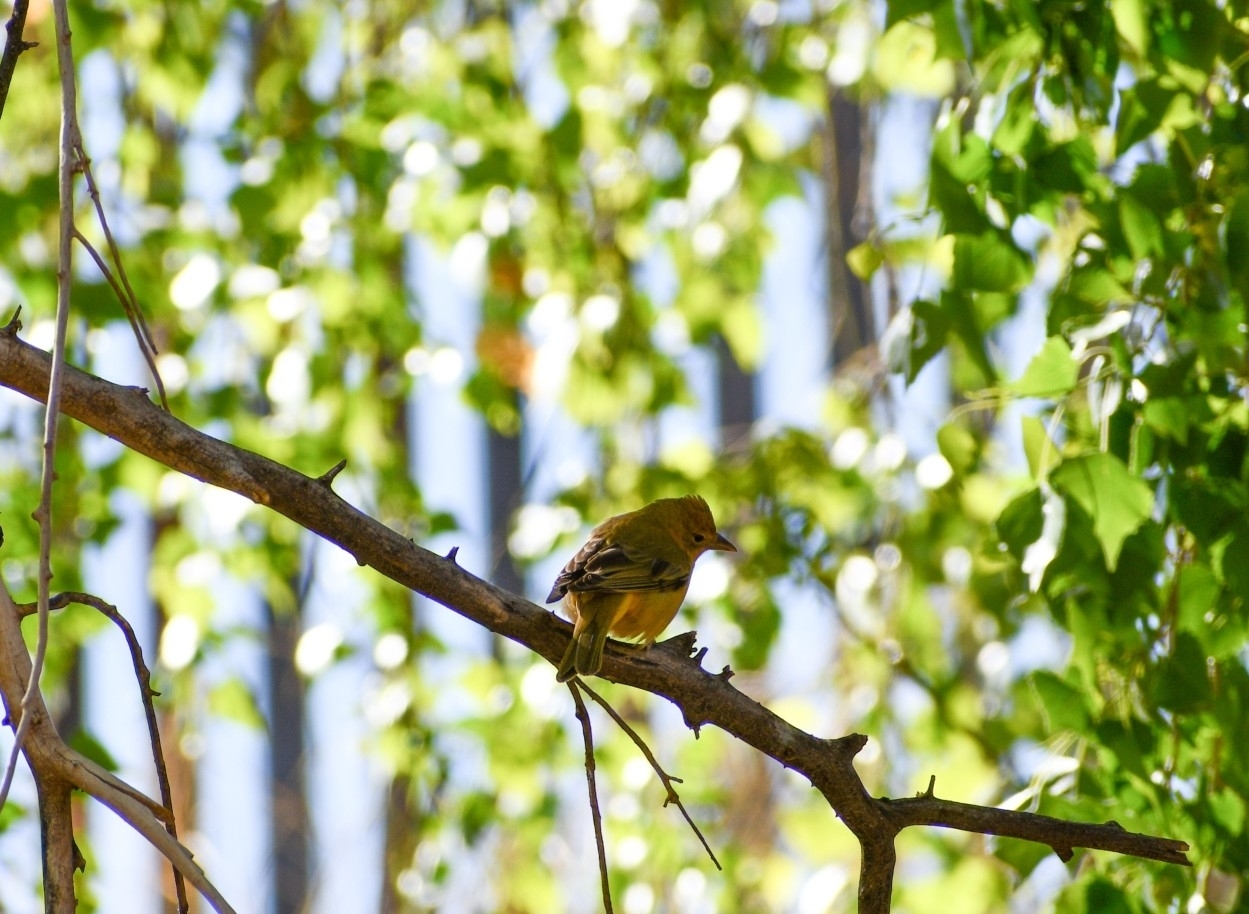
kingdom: Animalia
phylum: Chordata
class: Aves
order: Passeriformes
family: Cardinalidae
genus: Piranga
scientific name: Piranga rubra
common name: Summer tanager
